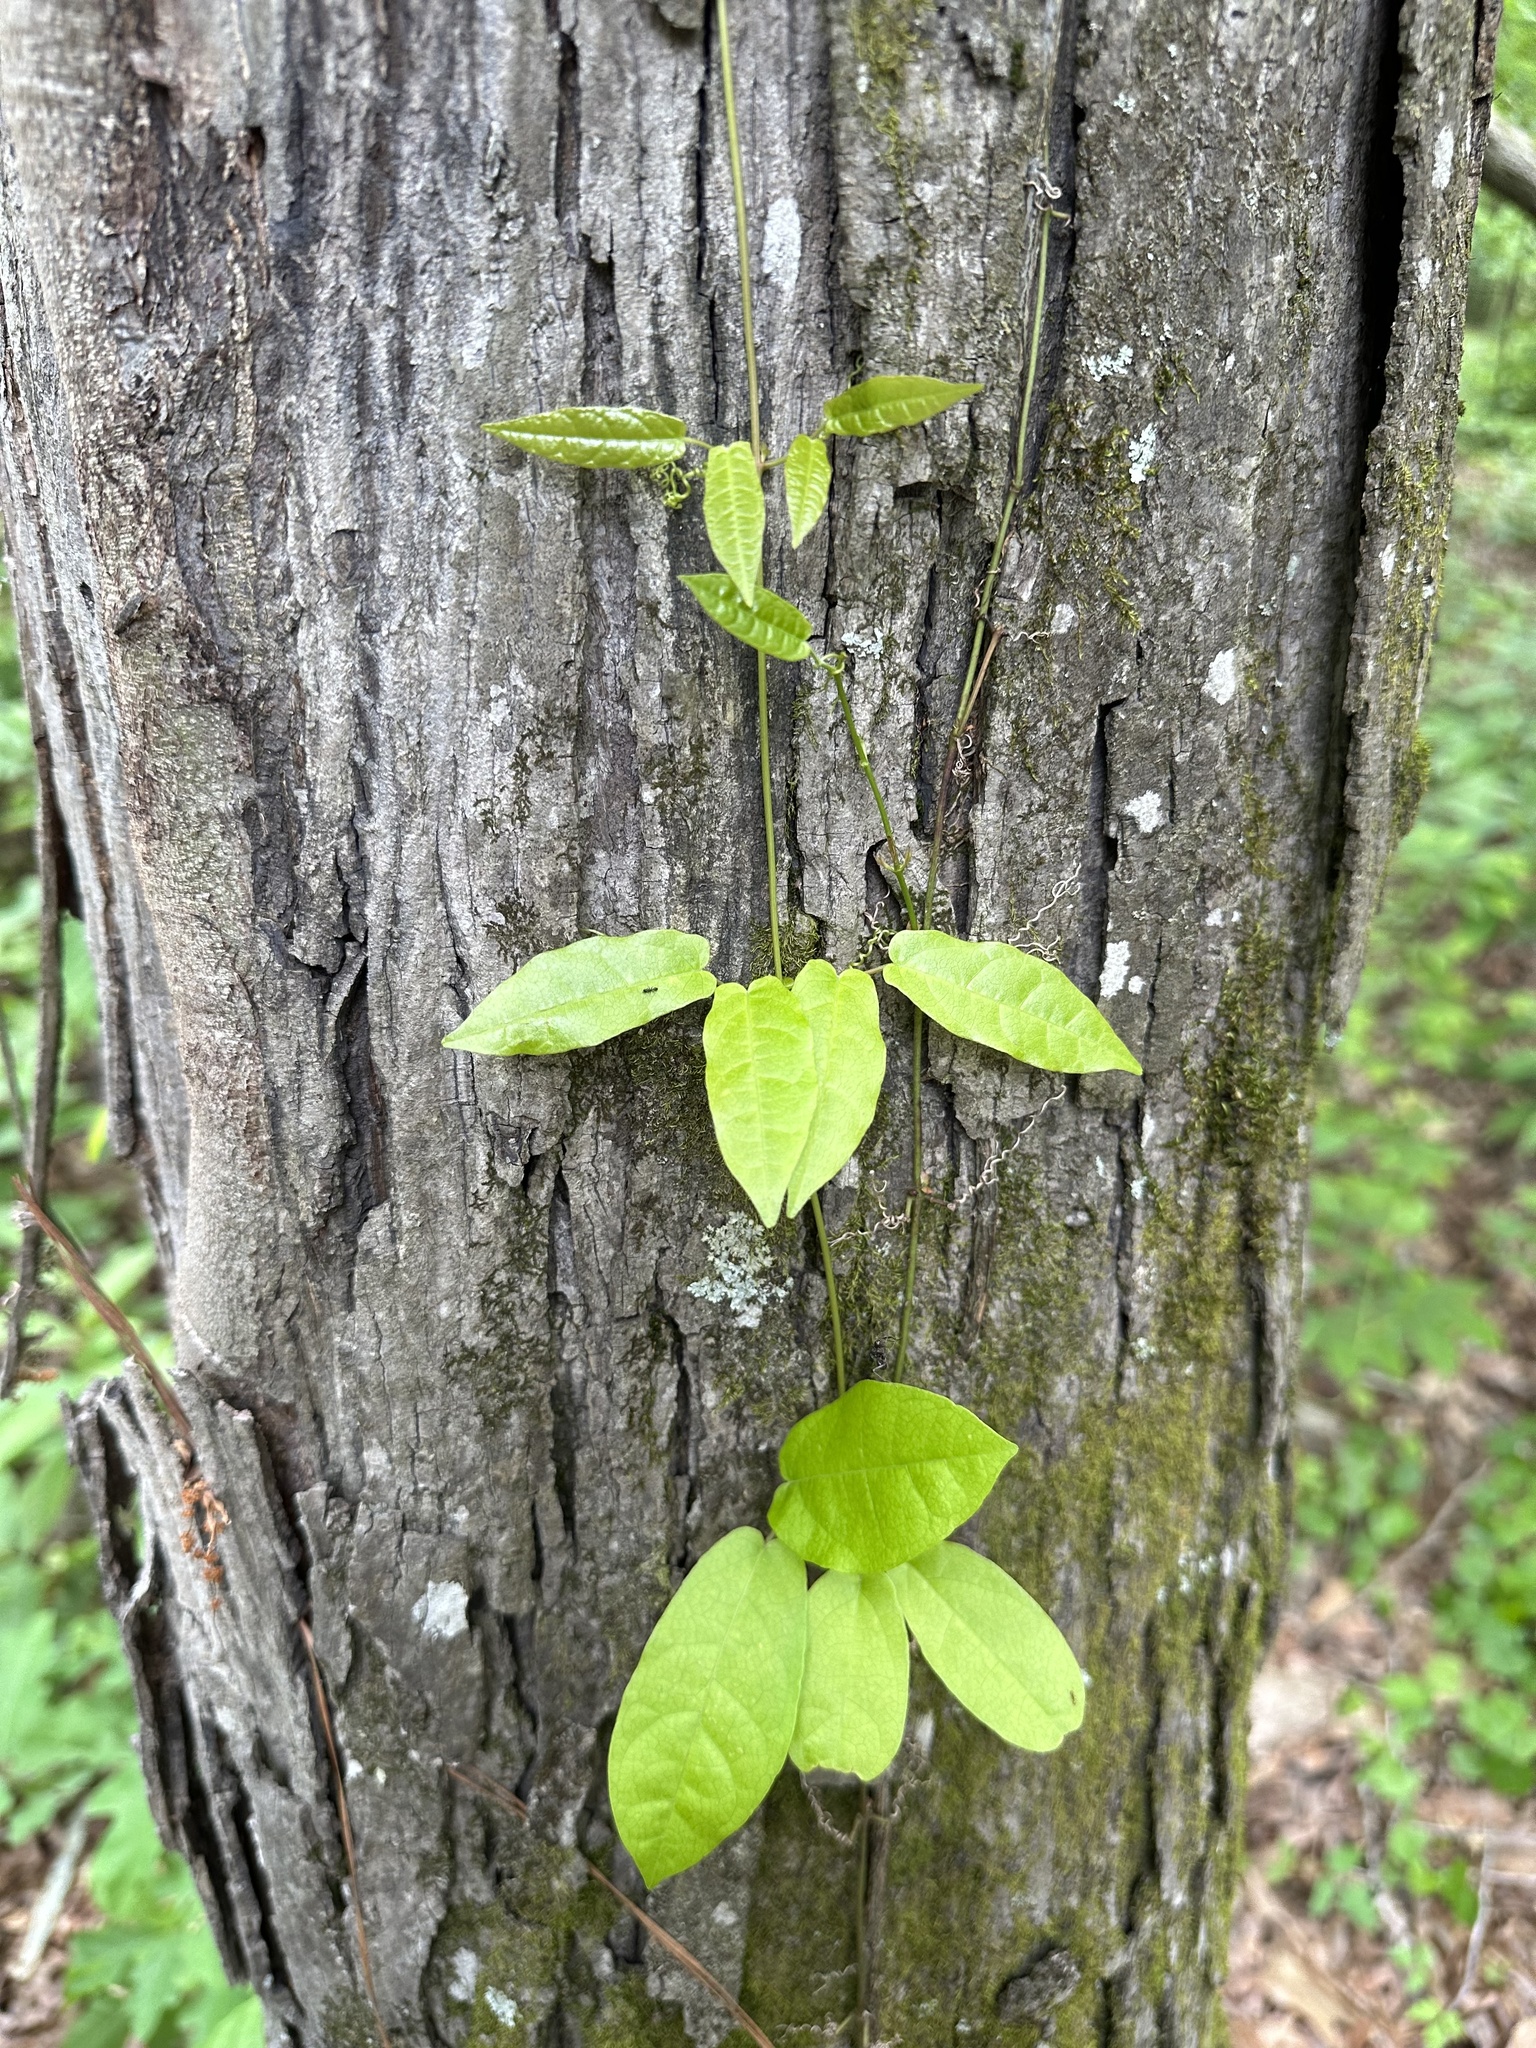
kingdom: Plantae
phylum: Tracheophyta
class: Magnoliopsida
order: Lamiales
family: Bignoniaceae
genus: Bignonia
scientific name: Bignonia capreolata
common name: Crossvine
